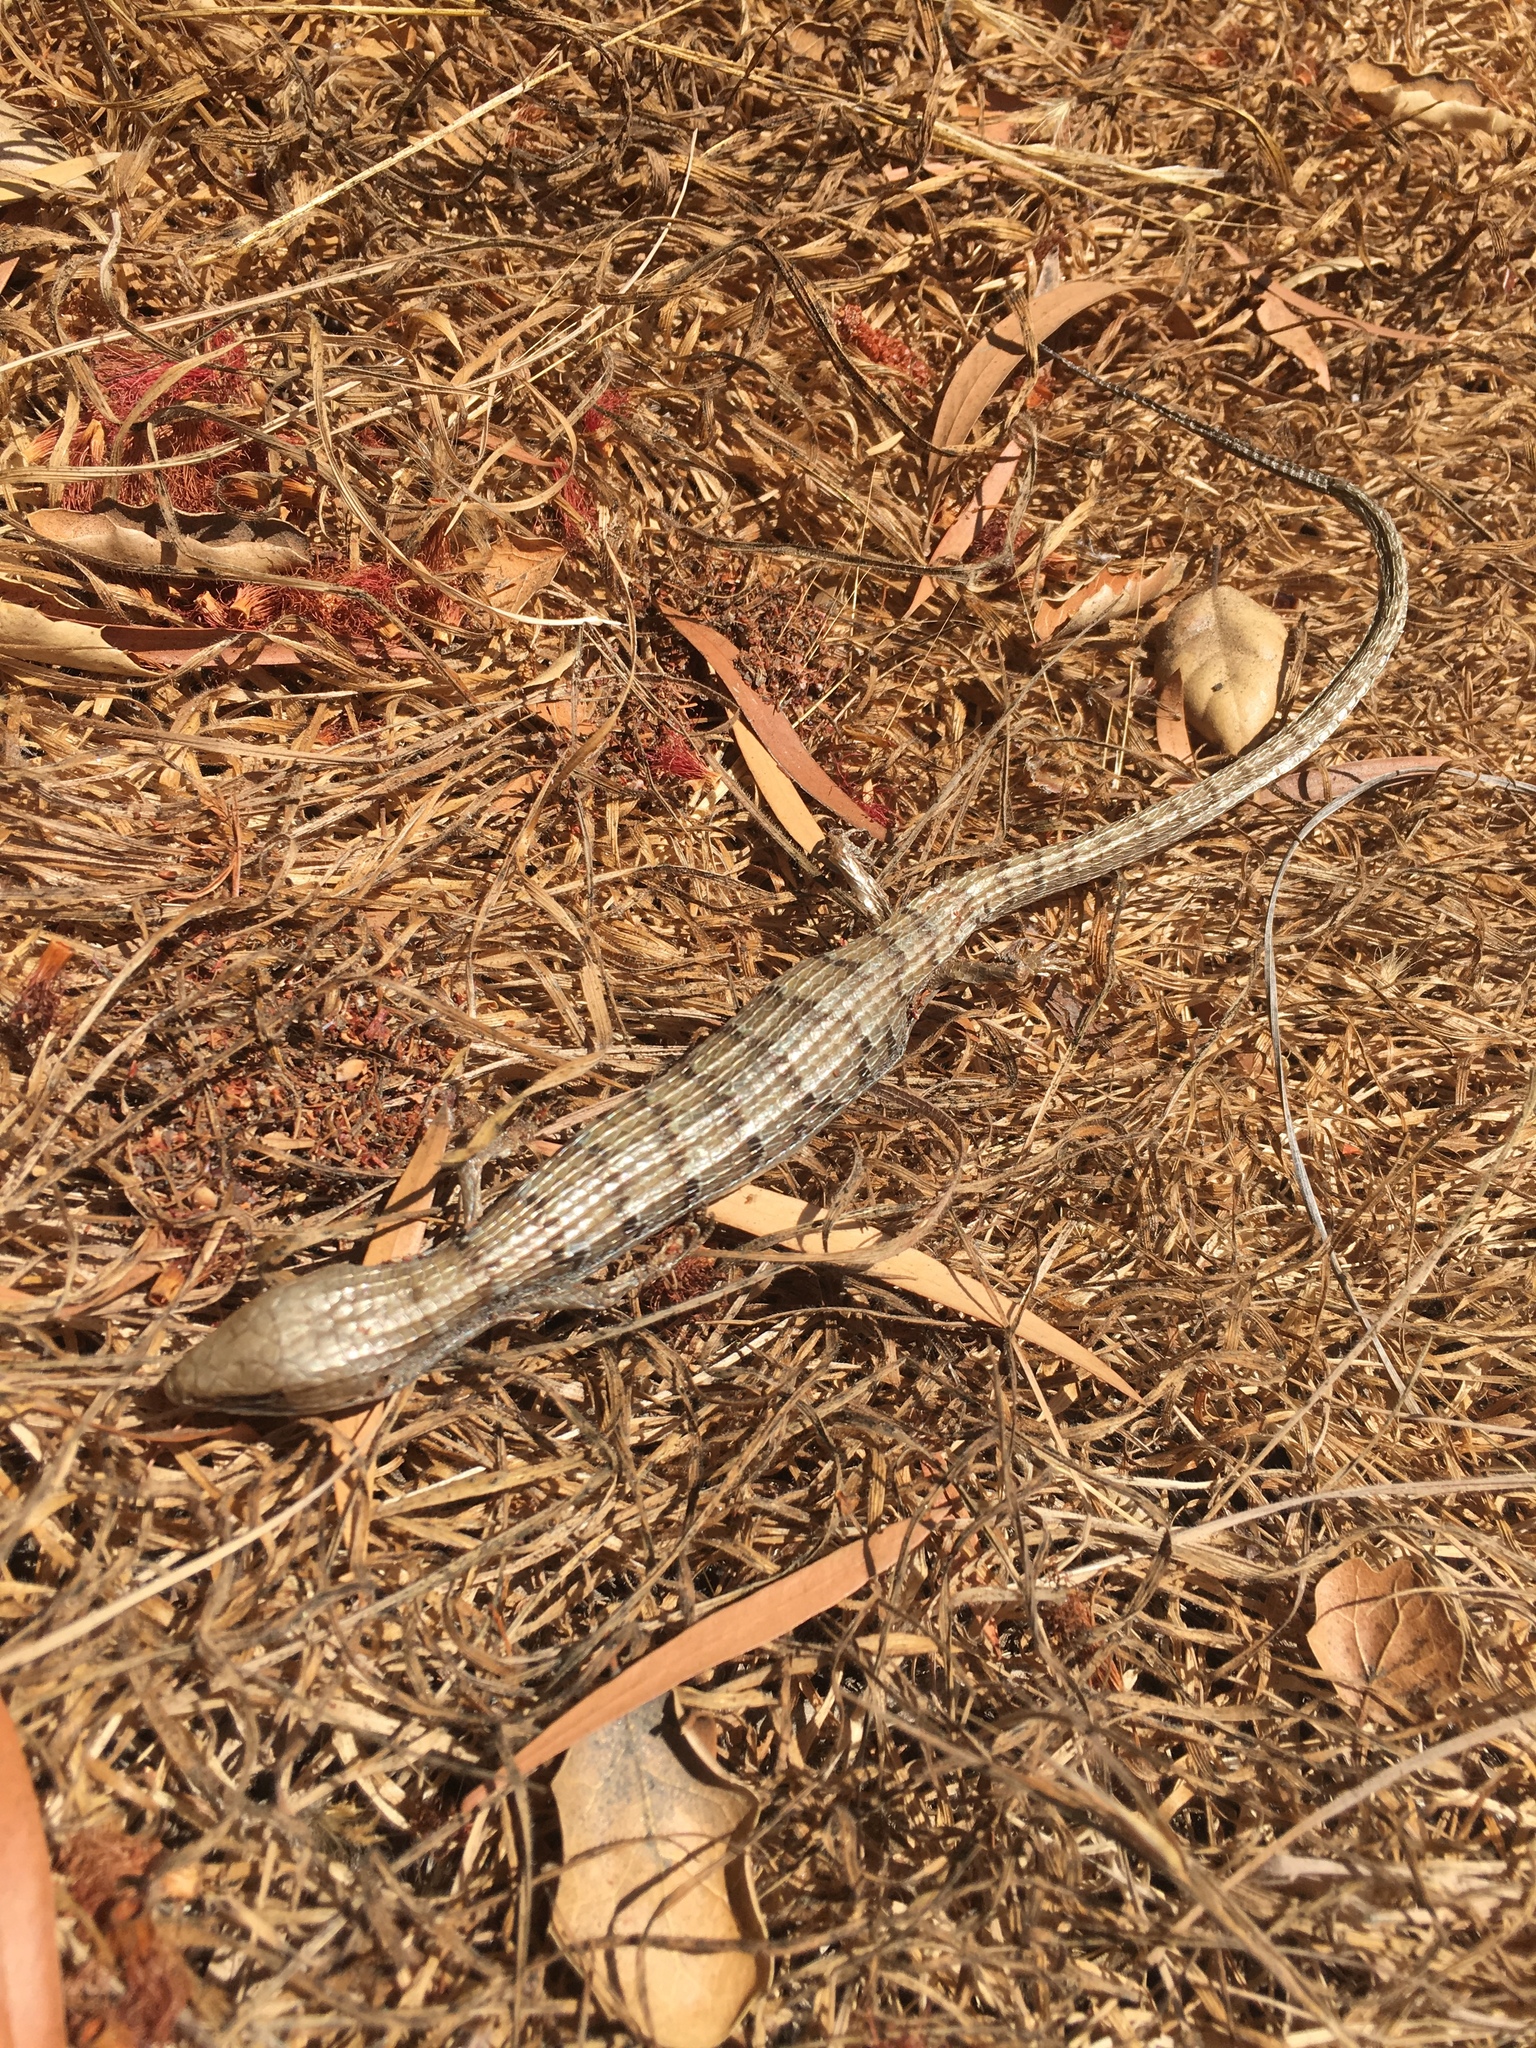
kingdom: Animalia
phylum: Chordata
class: Squamata
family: Anguidae
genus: Elgaria
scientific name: Elgaria multicarinata
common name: Southern alligator lizard
